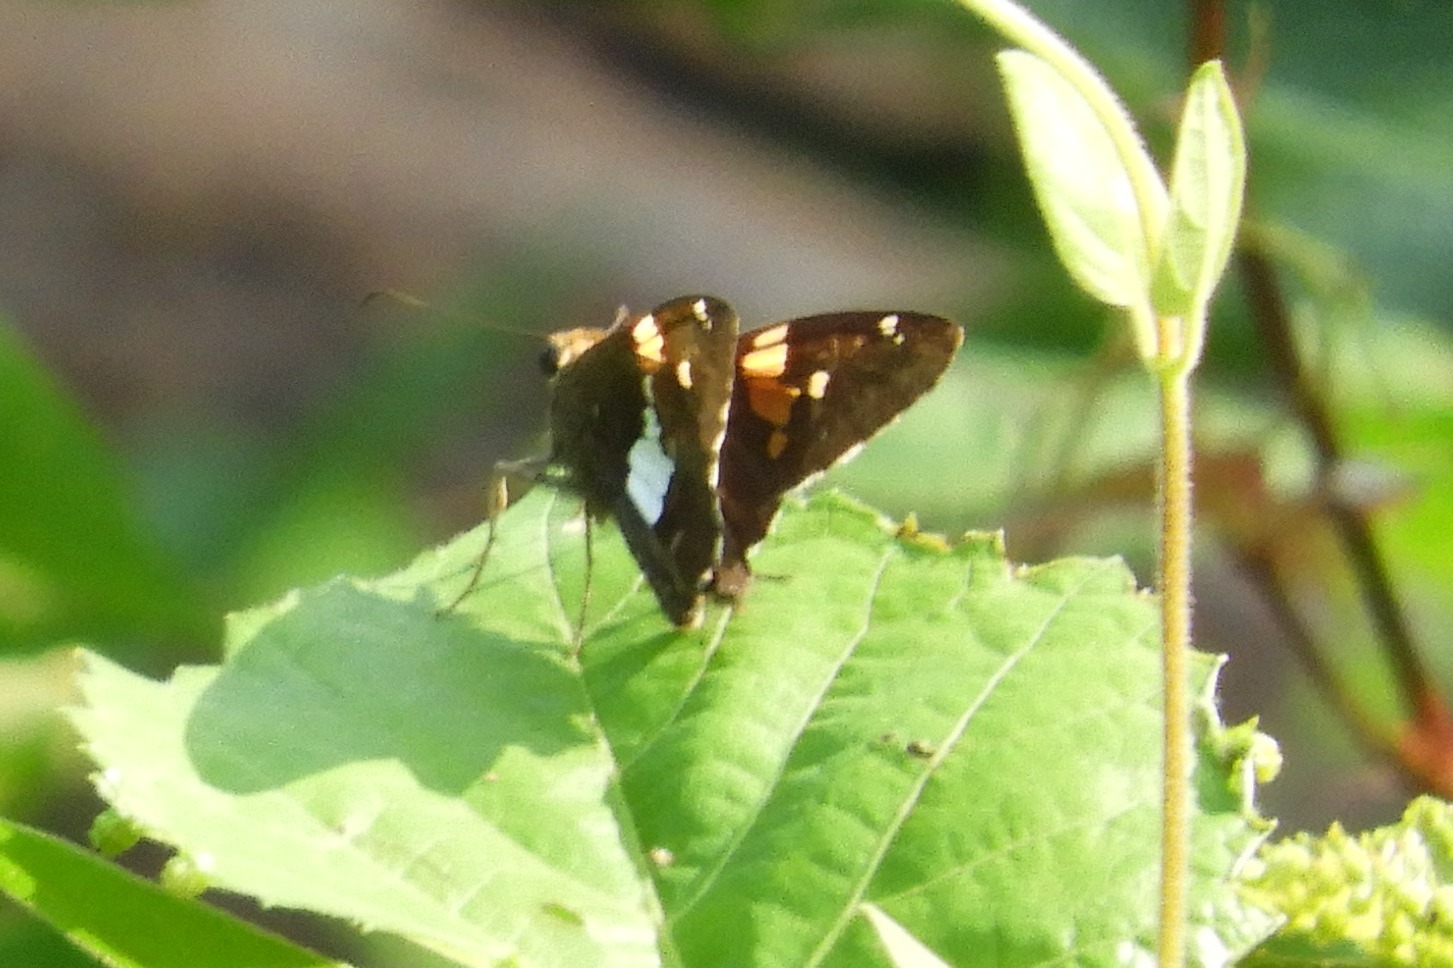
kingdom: Animalia
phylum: Arthropoda
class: Insecta
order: Lepidoptera
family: Hesperiidae
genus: Epargyreus
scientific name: Epargyreus clarus
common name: Silver-spotted skipper
